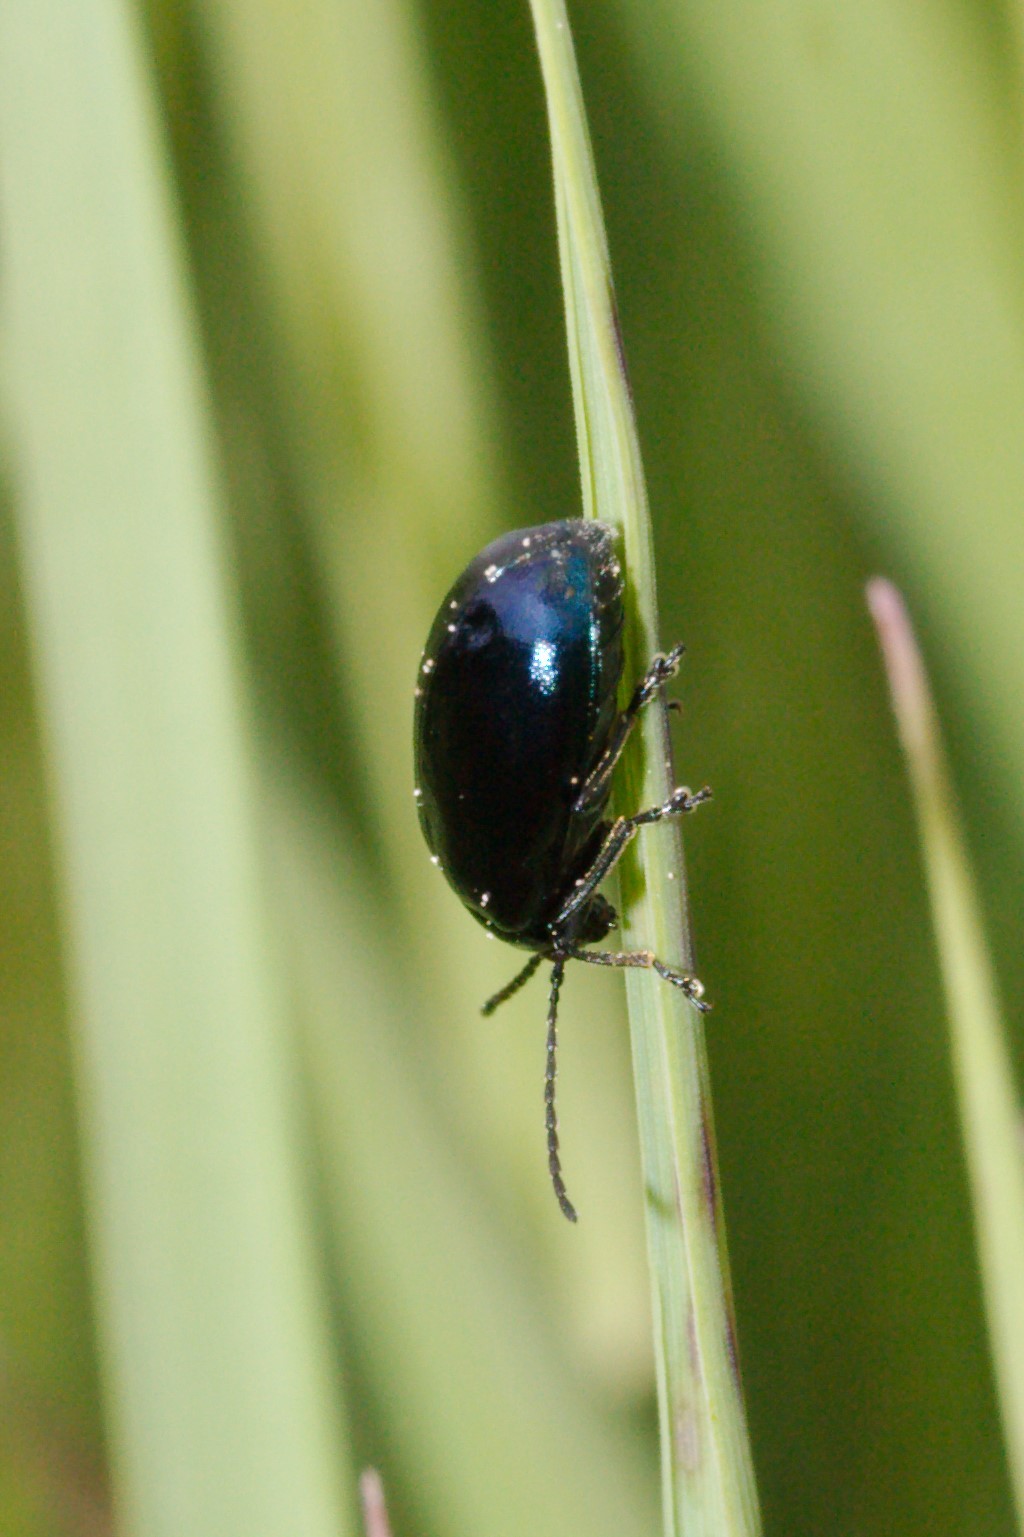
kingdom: Animalia
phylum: Arthropoda
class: Insecta
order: Coleoptera
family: Chrysomelidae
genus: Agelastica
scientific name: Agelastica alni
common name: Alder leaf beetle
